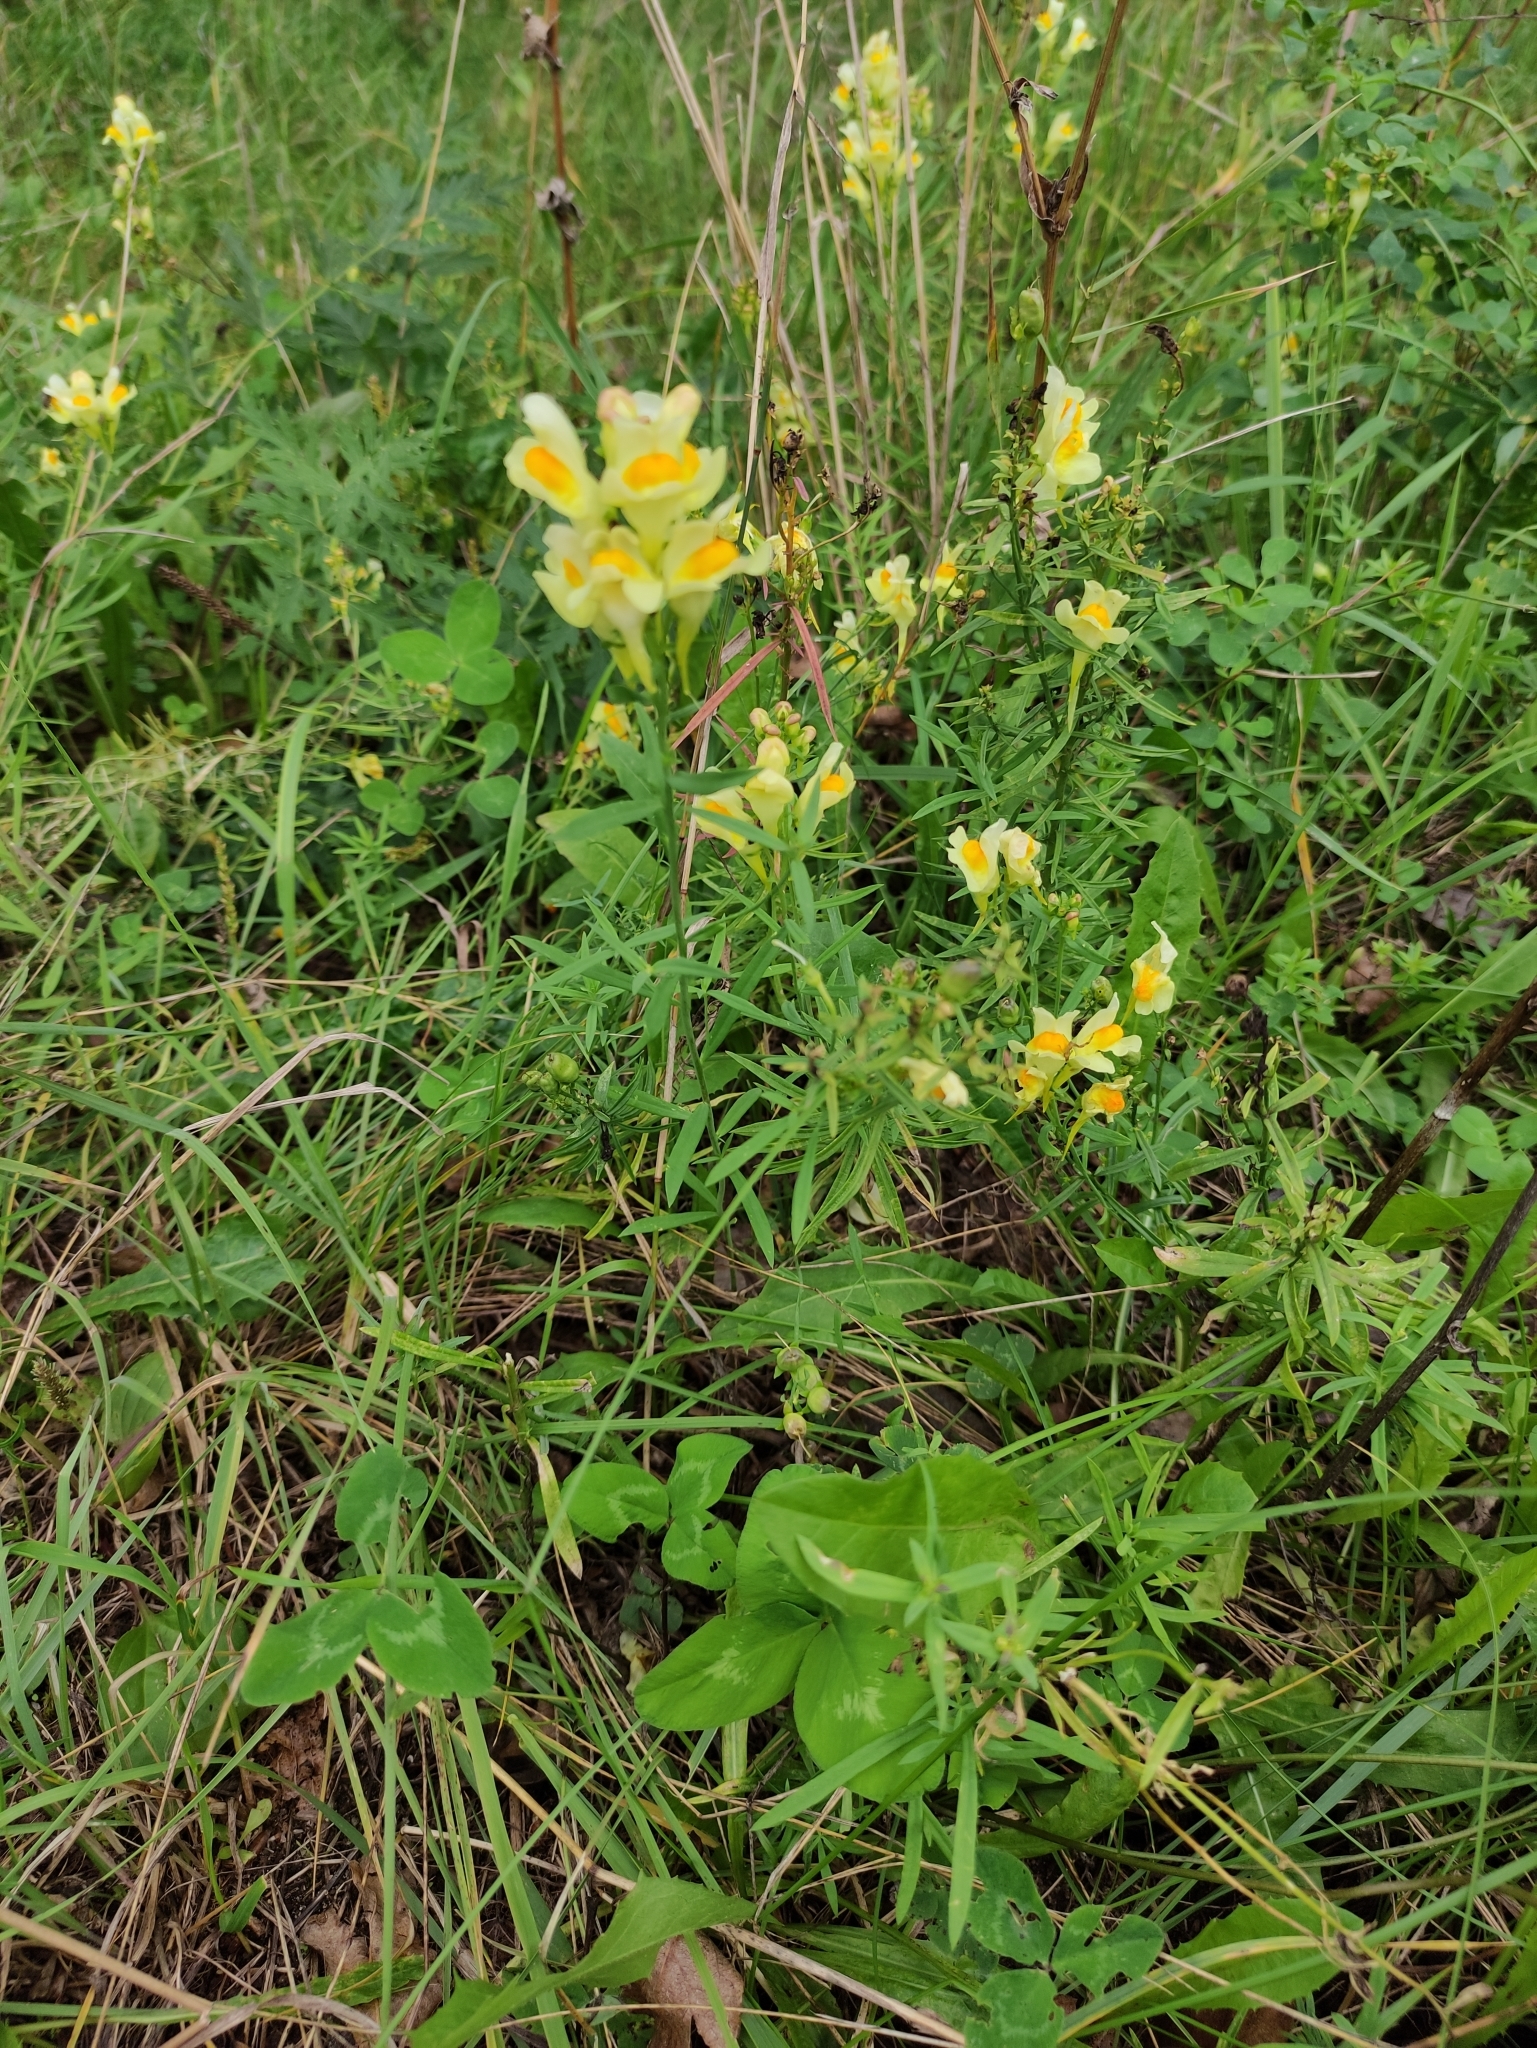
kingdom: Plantae
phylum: Tracheophyta
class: Magnoliopsida
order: Lamiales
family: Plantaginaceae
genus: Linaria
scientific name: Linaria vulgaris
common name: Butter and eggs
